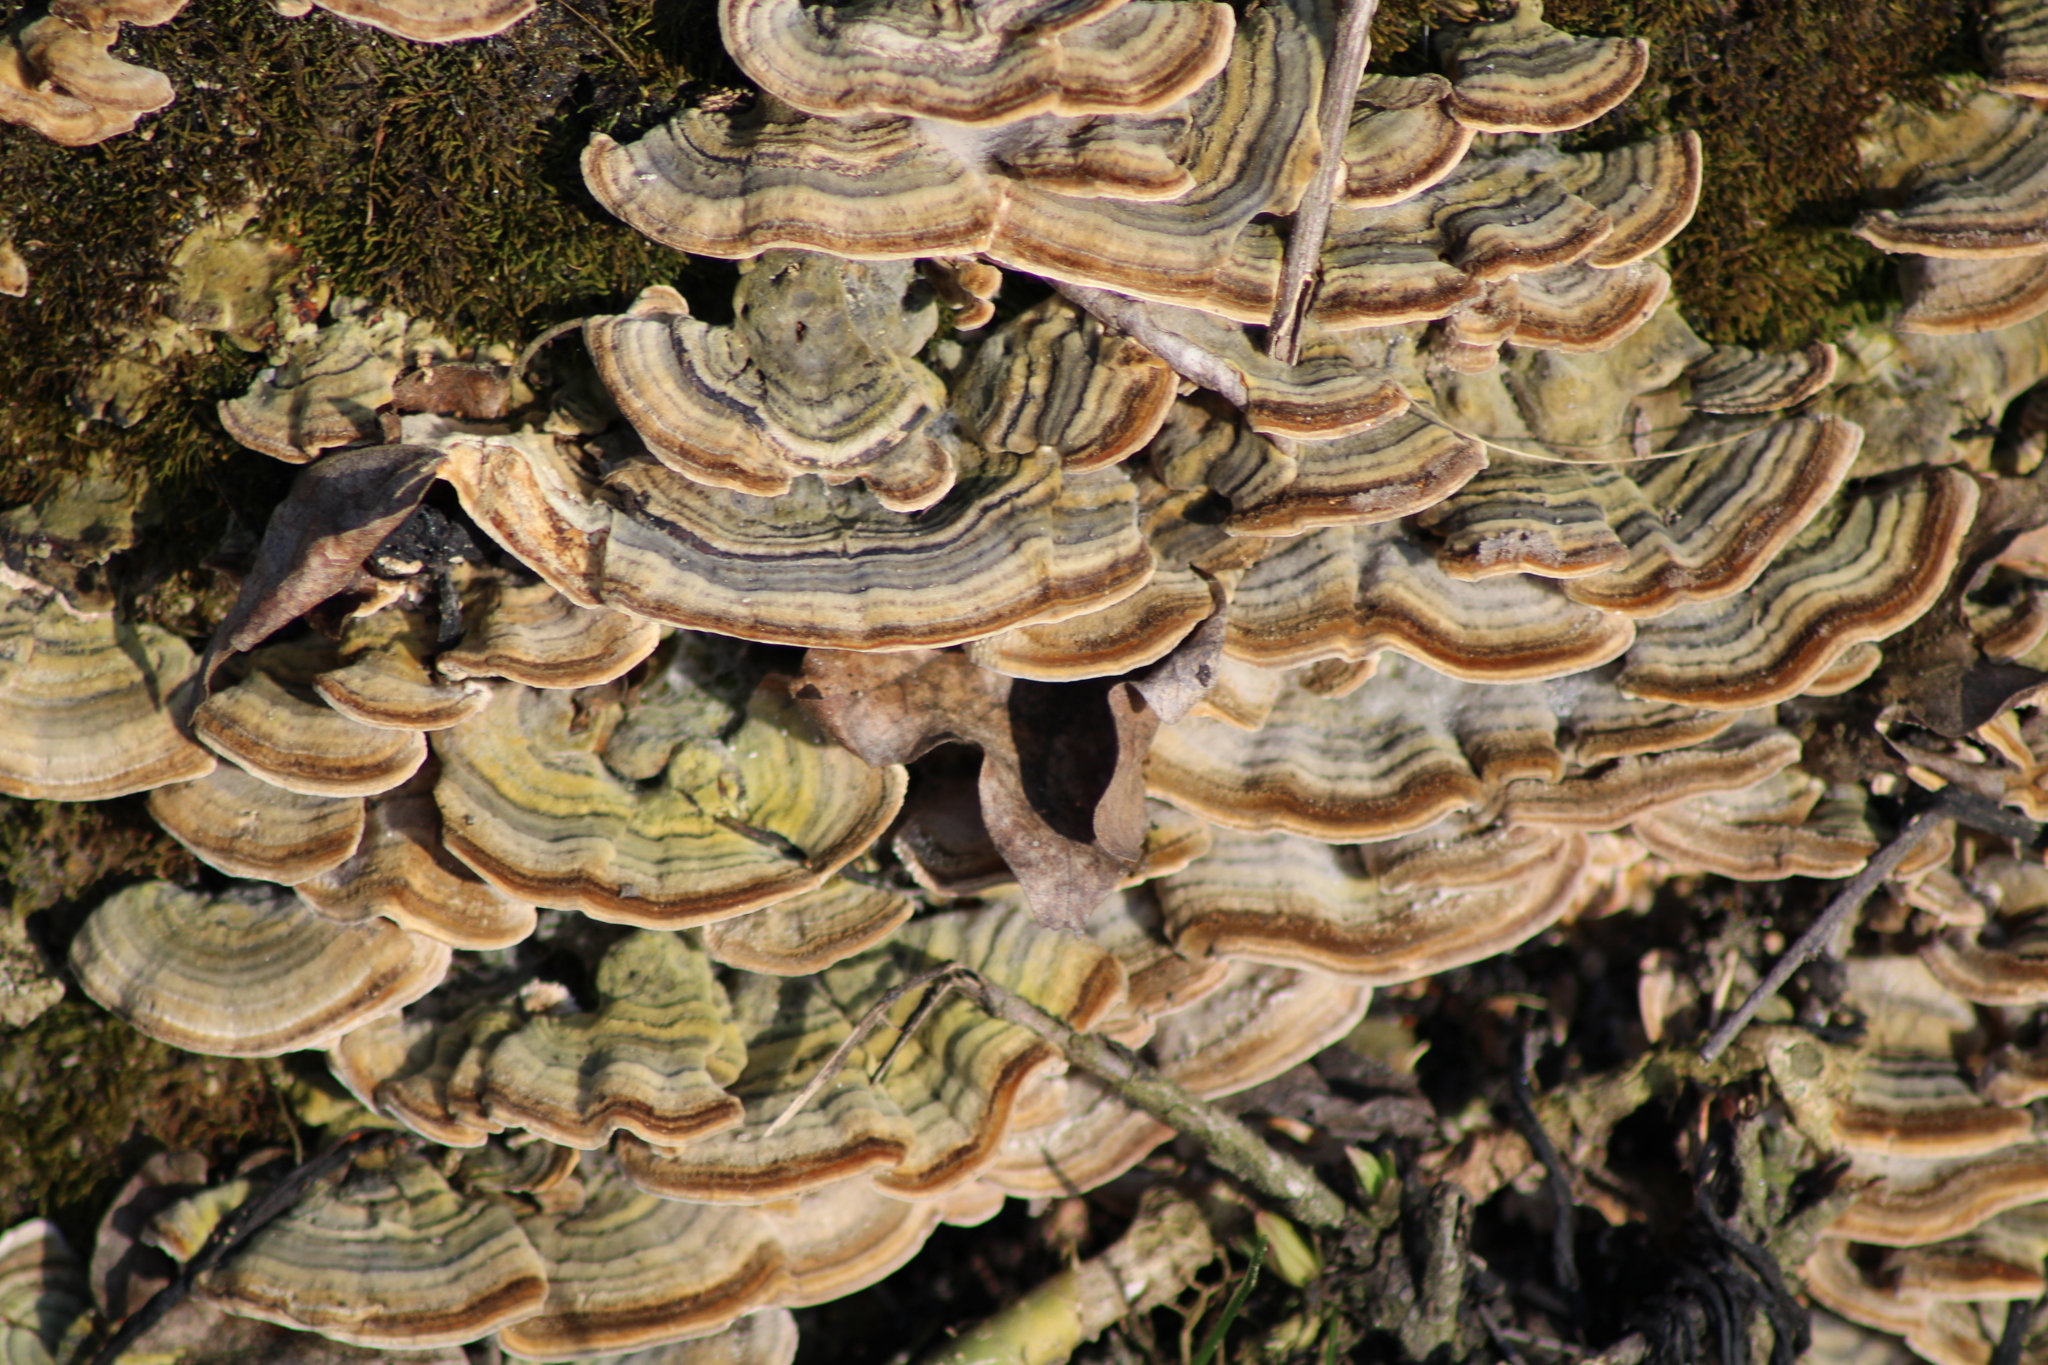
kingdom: Fungi
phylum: Basidiomycota
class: Agaricomycetes
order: Polyporales
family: Polyporaceae
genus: Trametes
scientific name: Trametes versicolor
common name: Turkeytail
